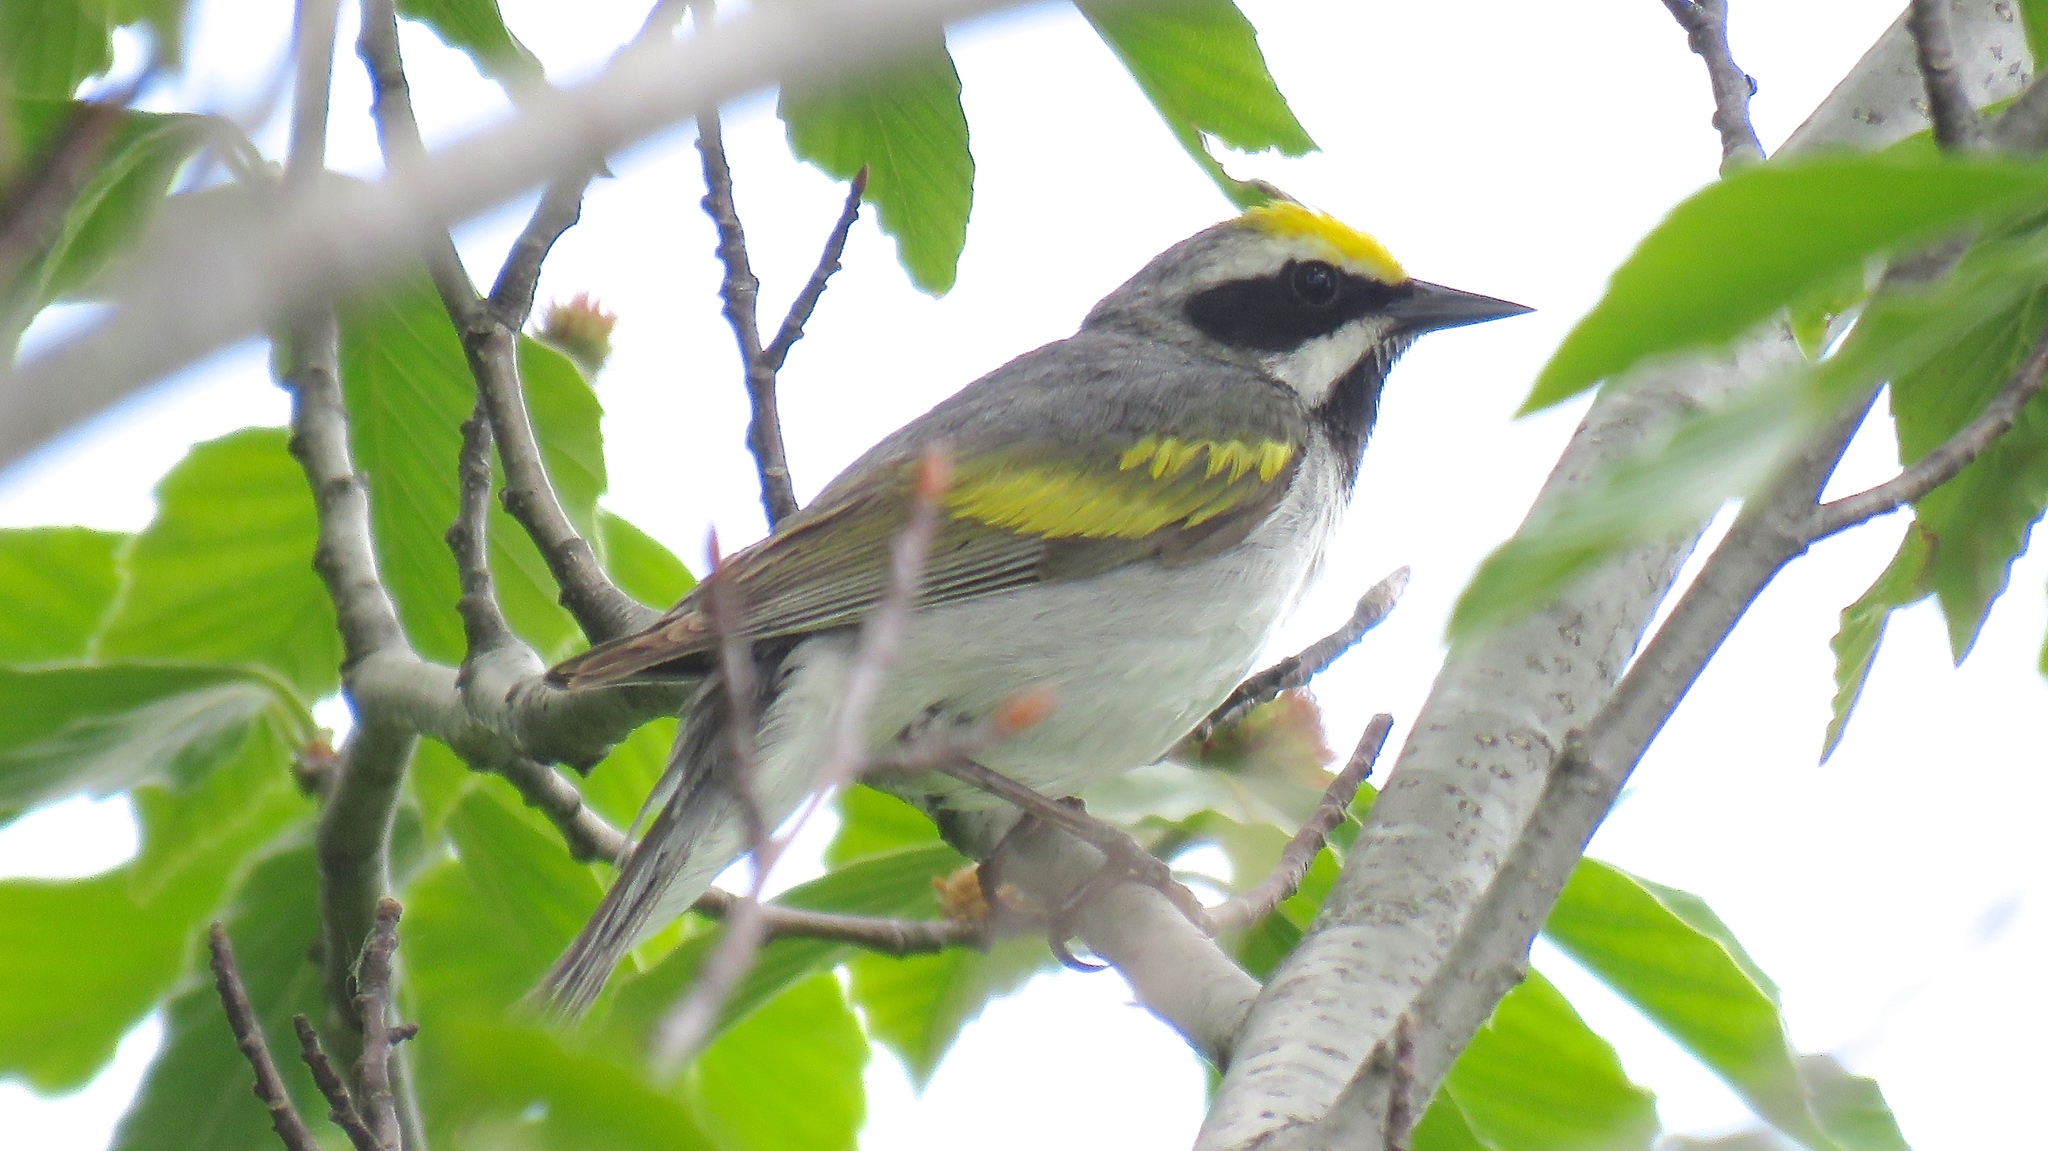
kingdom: Animalia
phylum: Chordata
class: Aves
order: Passeriformes
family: Parulidae
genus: Vermivora
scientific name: Vermivora chrysoptera
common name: Golden-winged warbler
